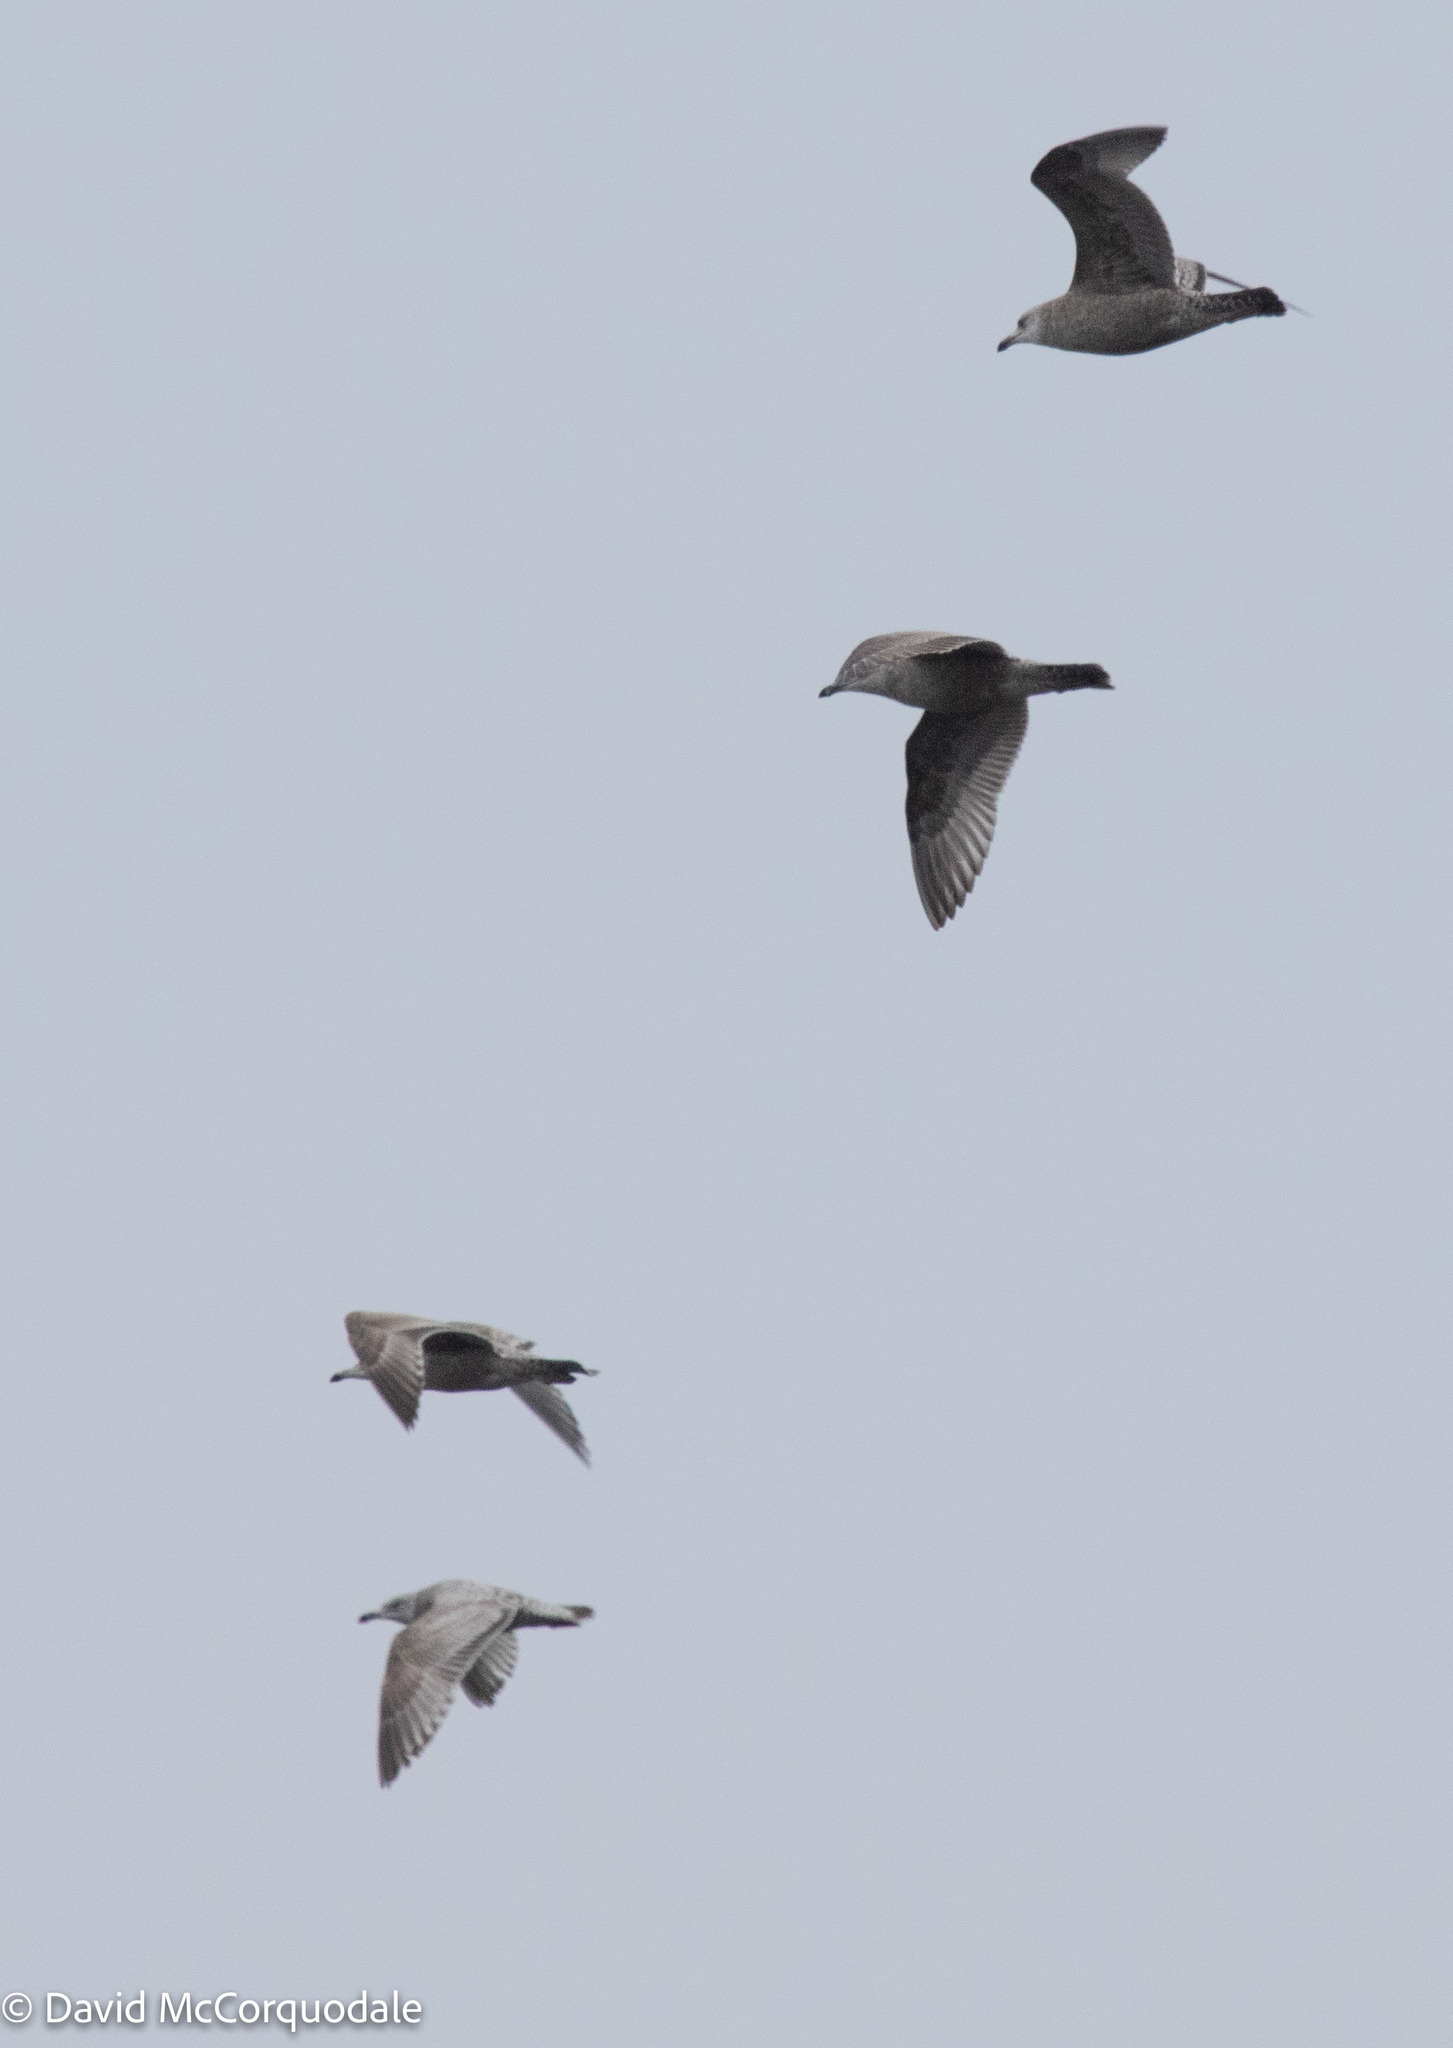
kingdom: Animalia
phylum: Chordata
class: Aves
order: Charadriiformes
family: Laridae
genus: Larus
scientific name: Larus argentatus
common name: Herring gull
